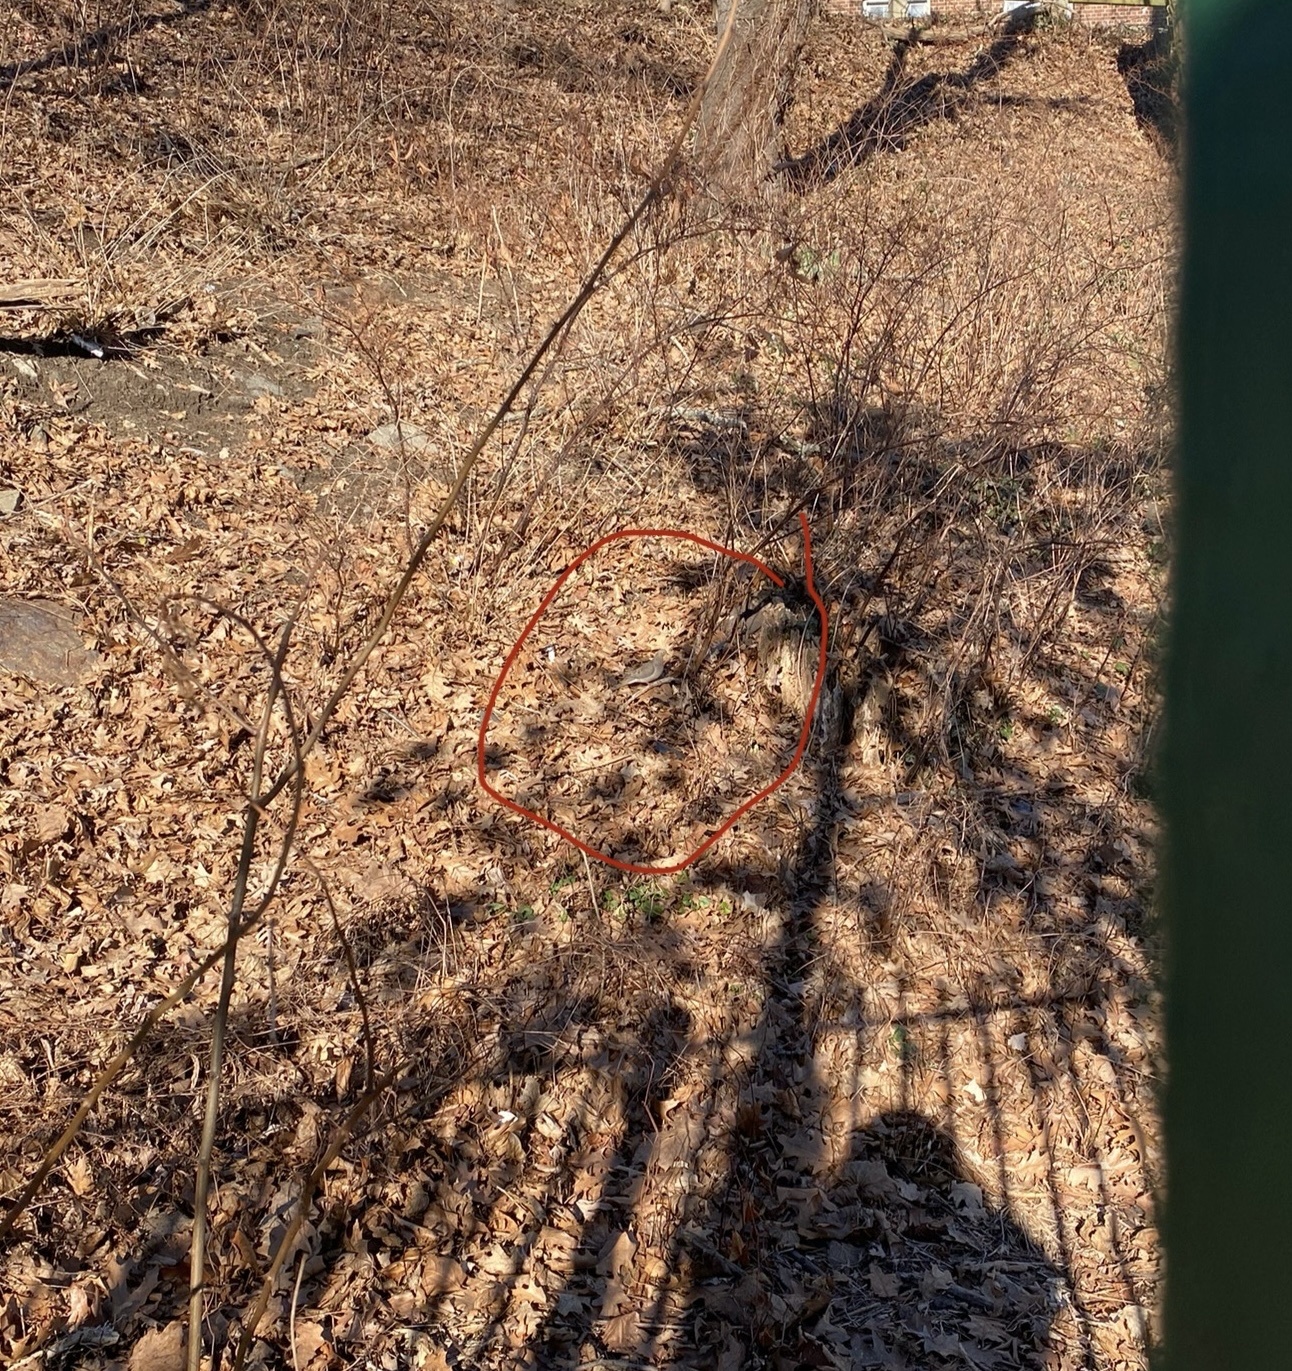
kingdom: Animalia
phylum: Chordata
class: Aves
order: Columbiformes
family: Columbidae
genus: Zenaida
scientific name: Zenaida macroura
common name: Mourning dove
